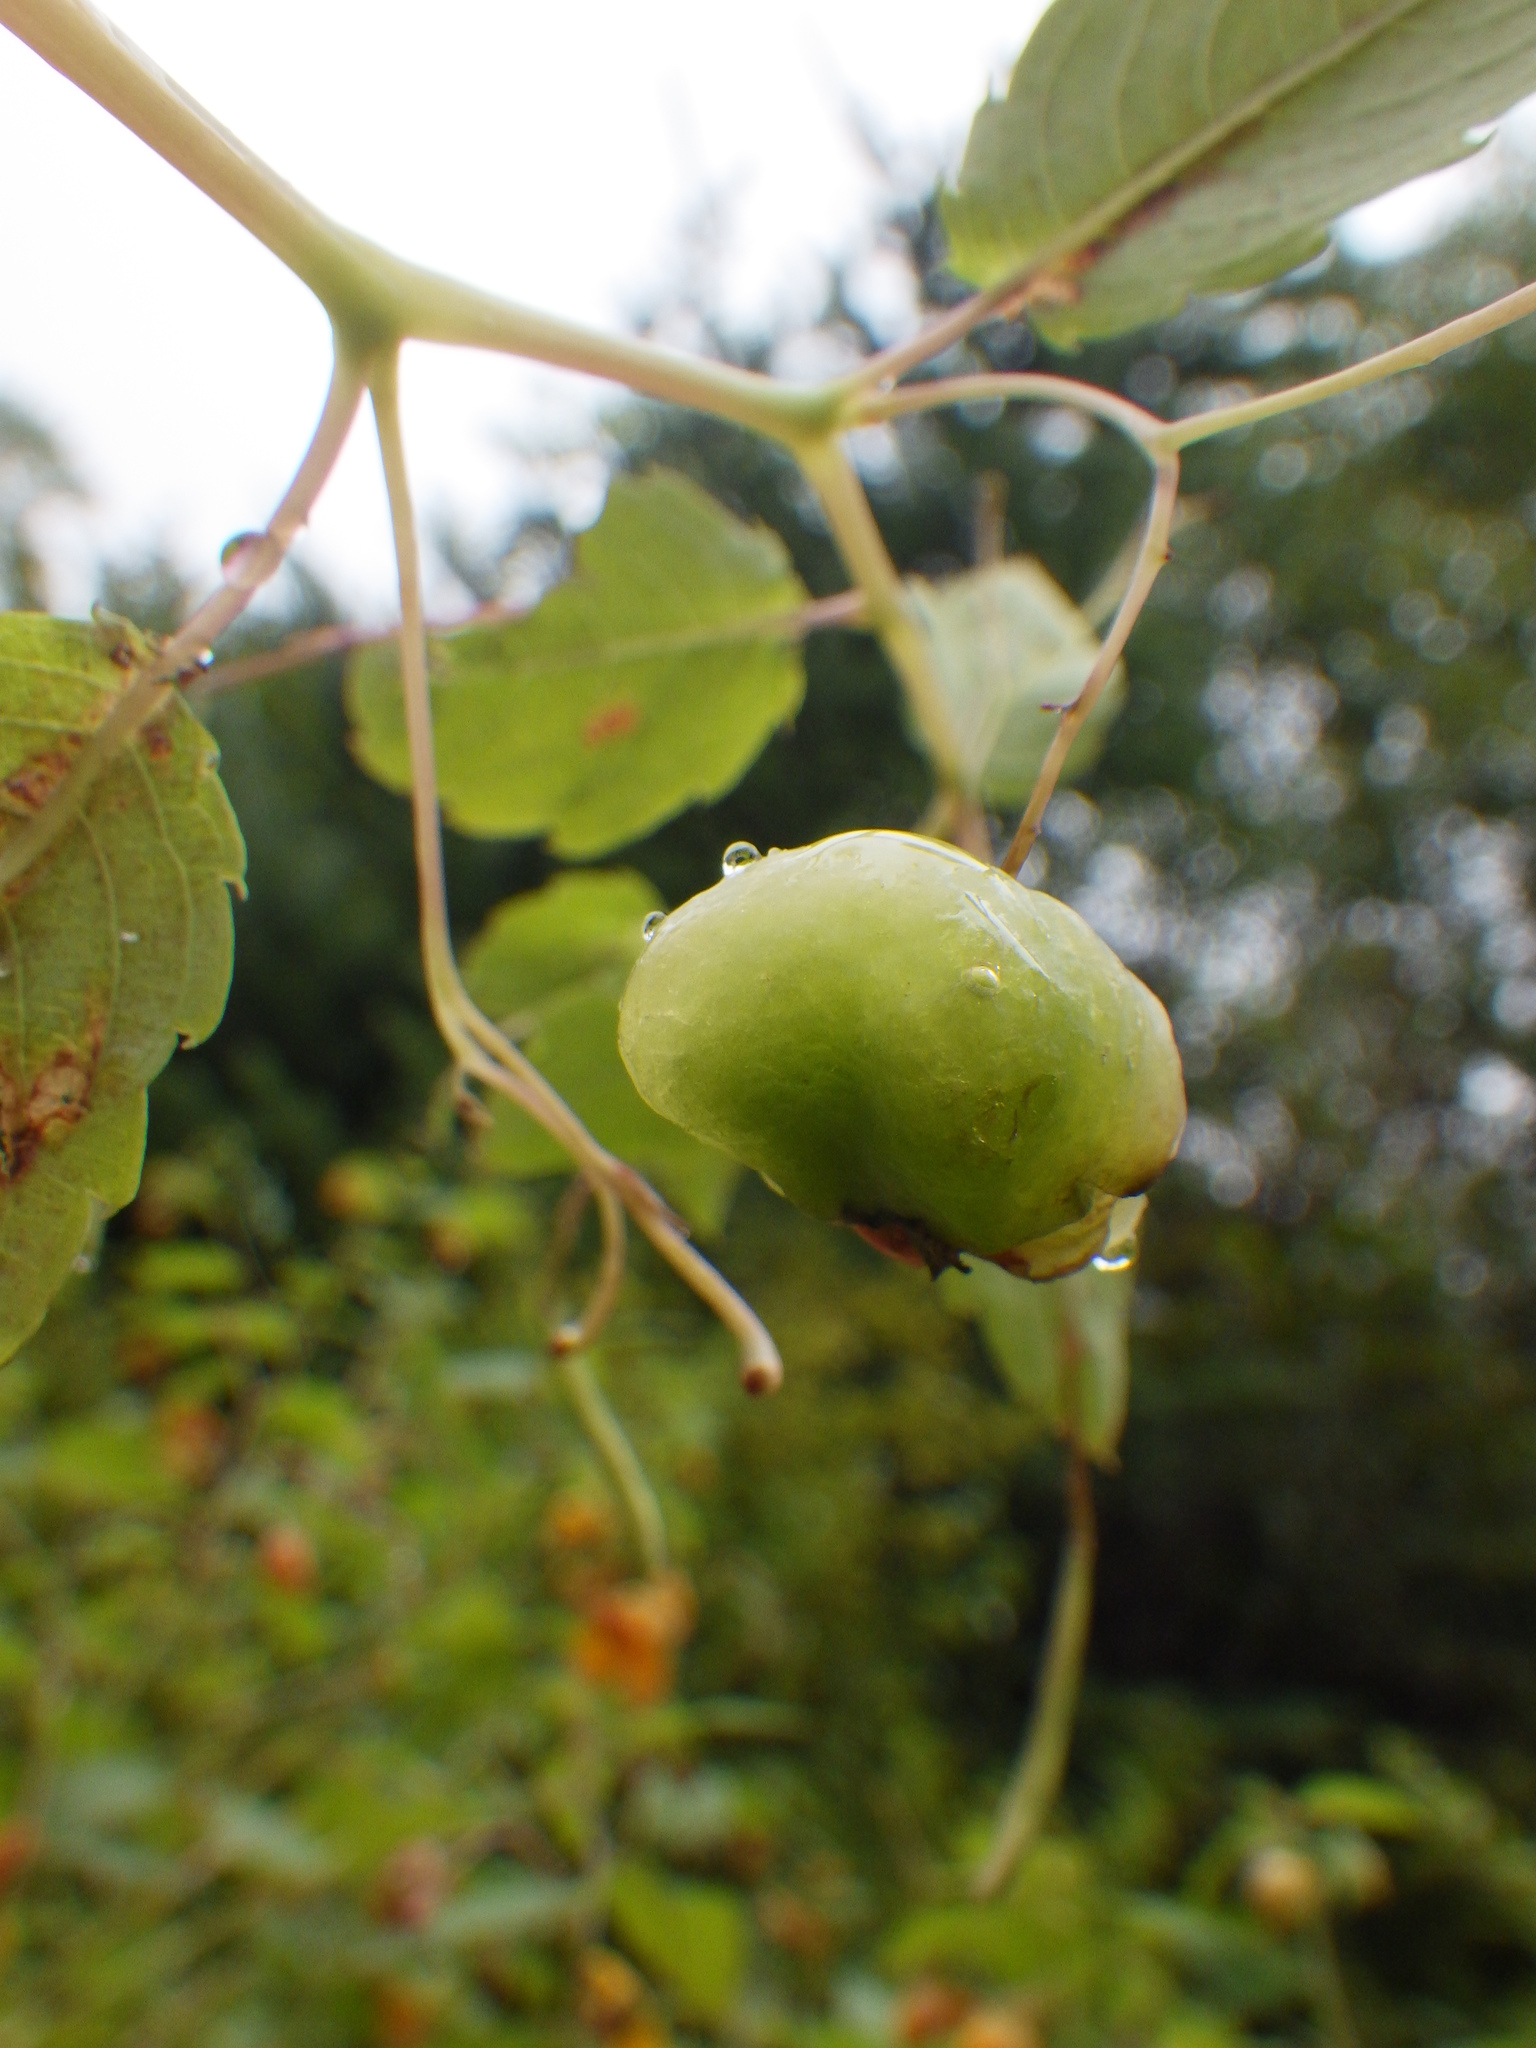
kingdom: Animalia
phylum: Arthropoda
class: Insecta
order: Diptera
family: Cecidomyiidae
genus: Schizomyia
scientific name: Schizomyia impatientis
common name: Jewelweed gall midge
